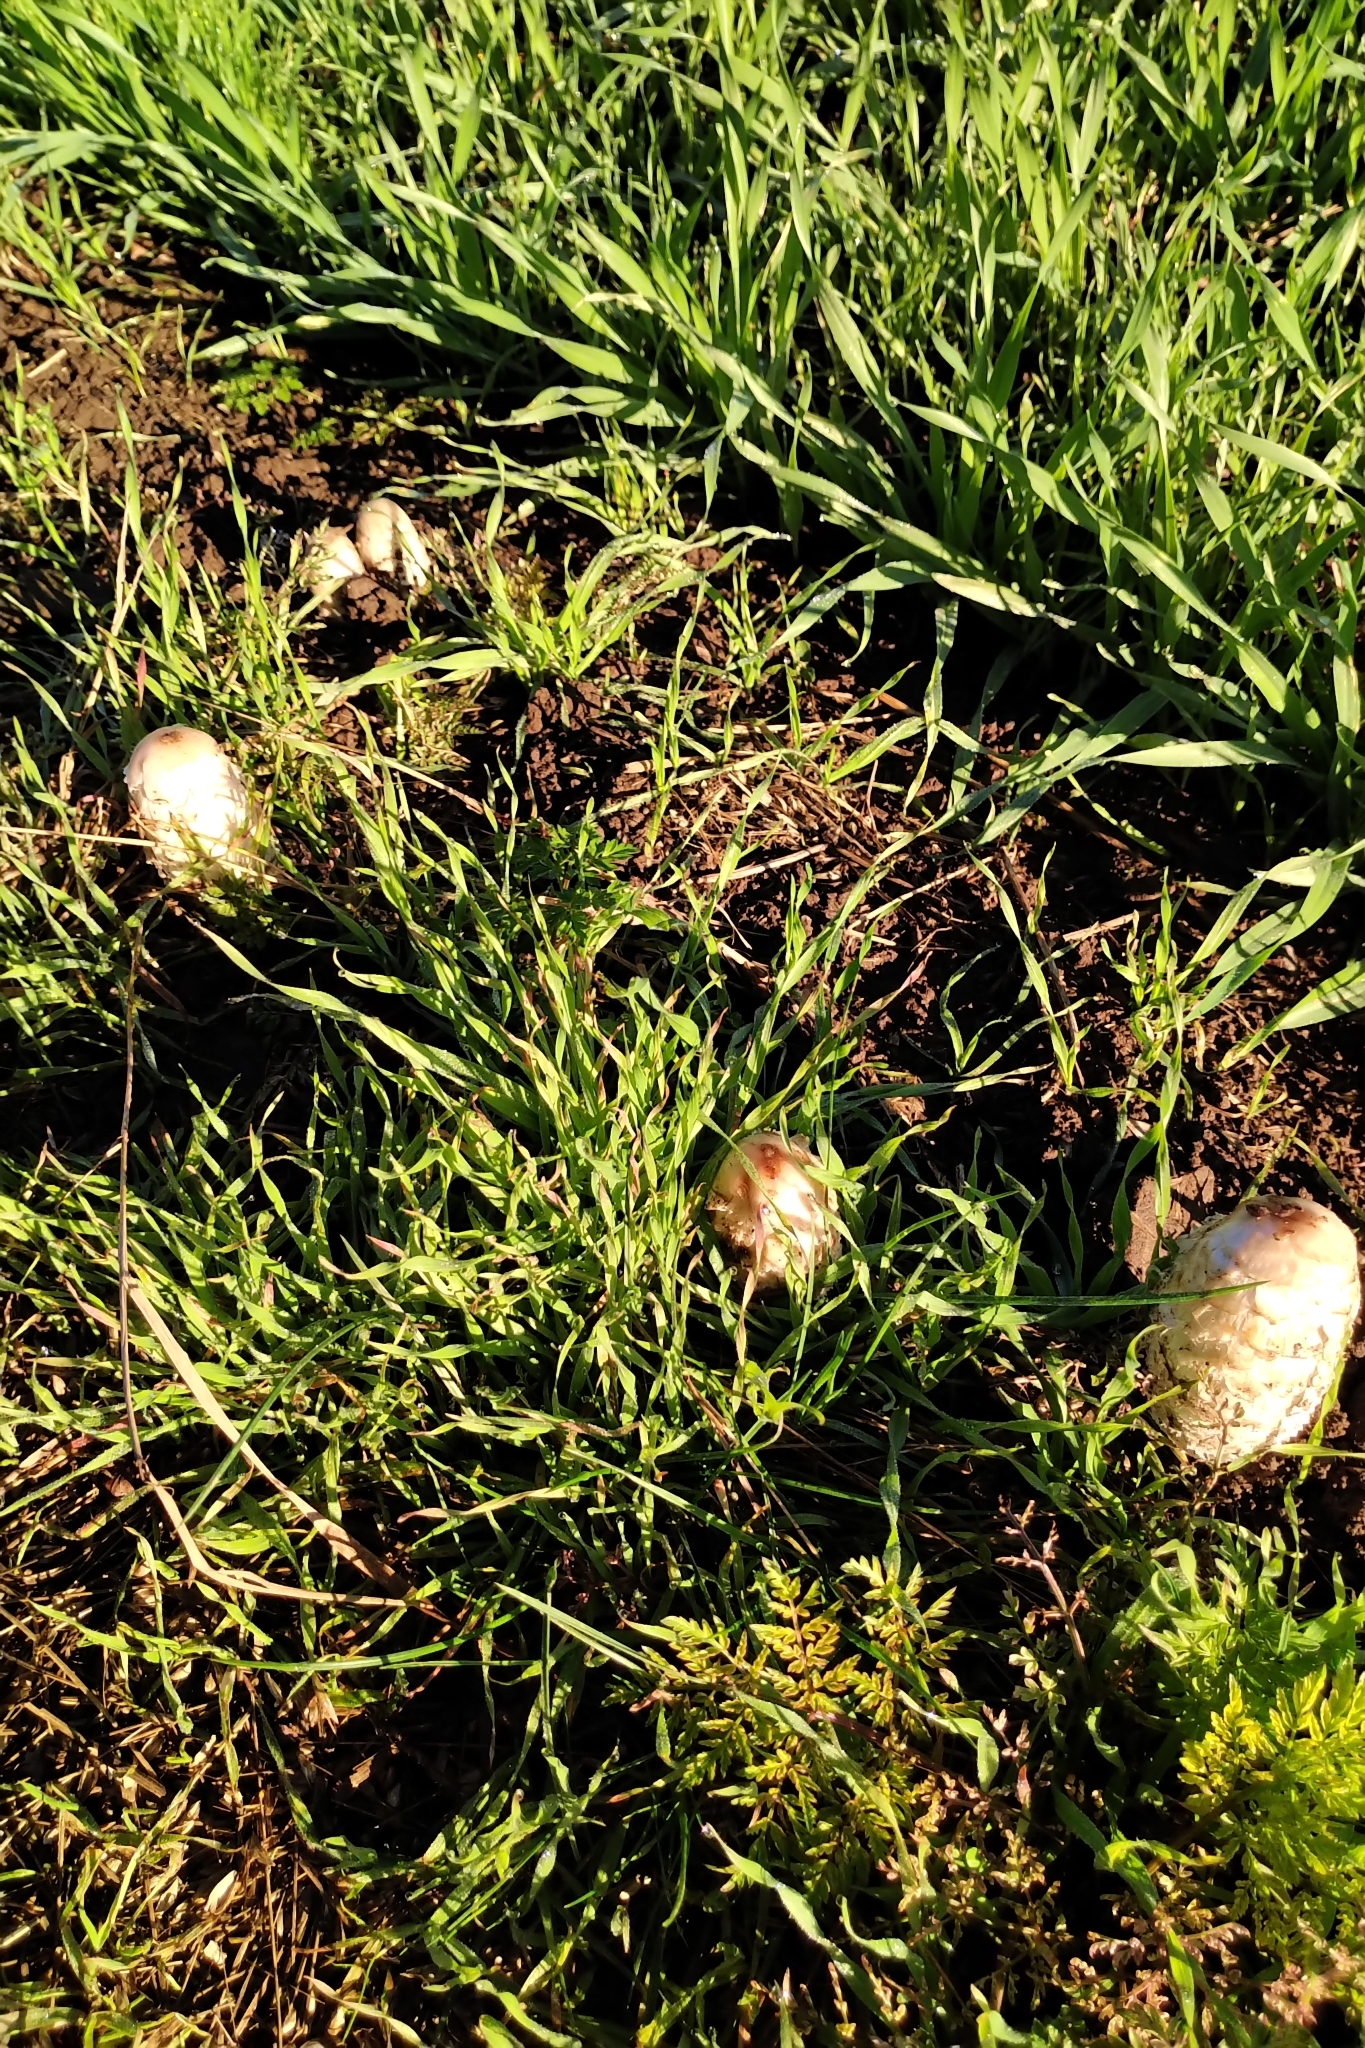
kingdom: Fungi
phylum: Basidiomycota
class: Agaricomycetes
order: Agaricales
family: Agaricaceae
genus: Coprinus
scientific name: Coprinus comatus
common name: Lawyer's wig
